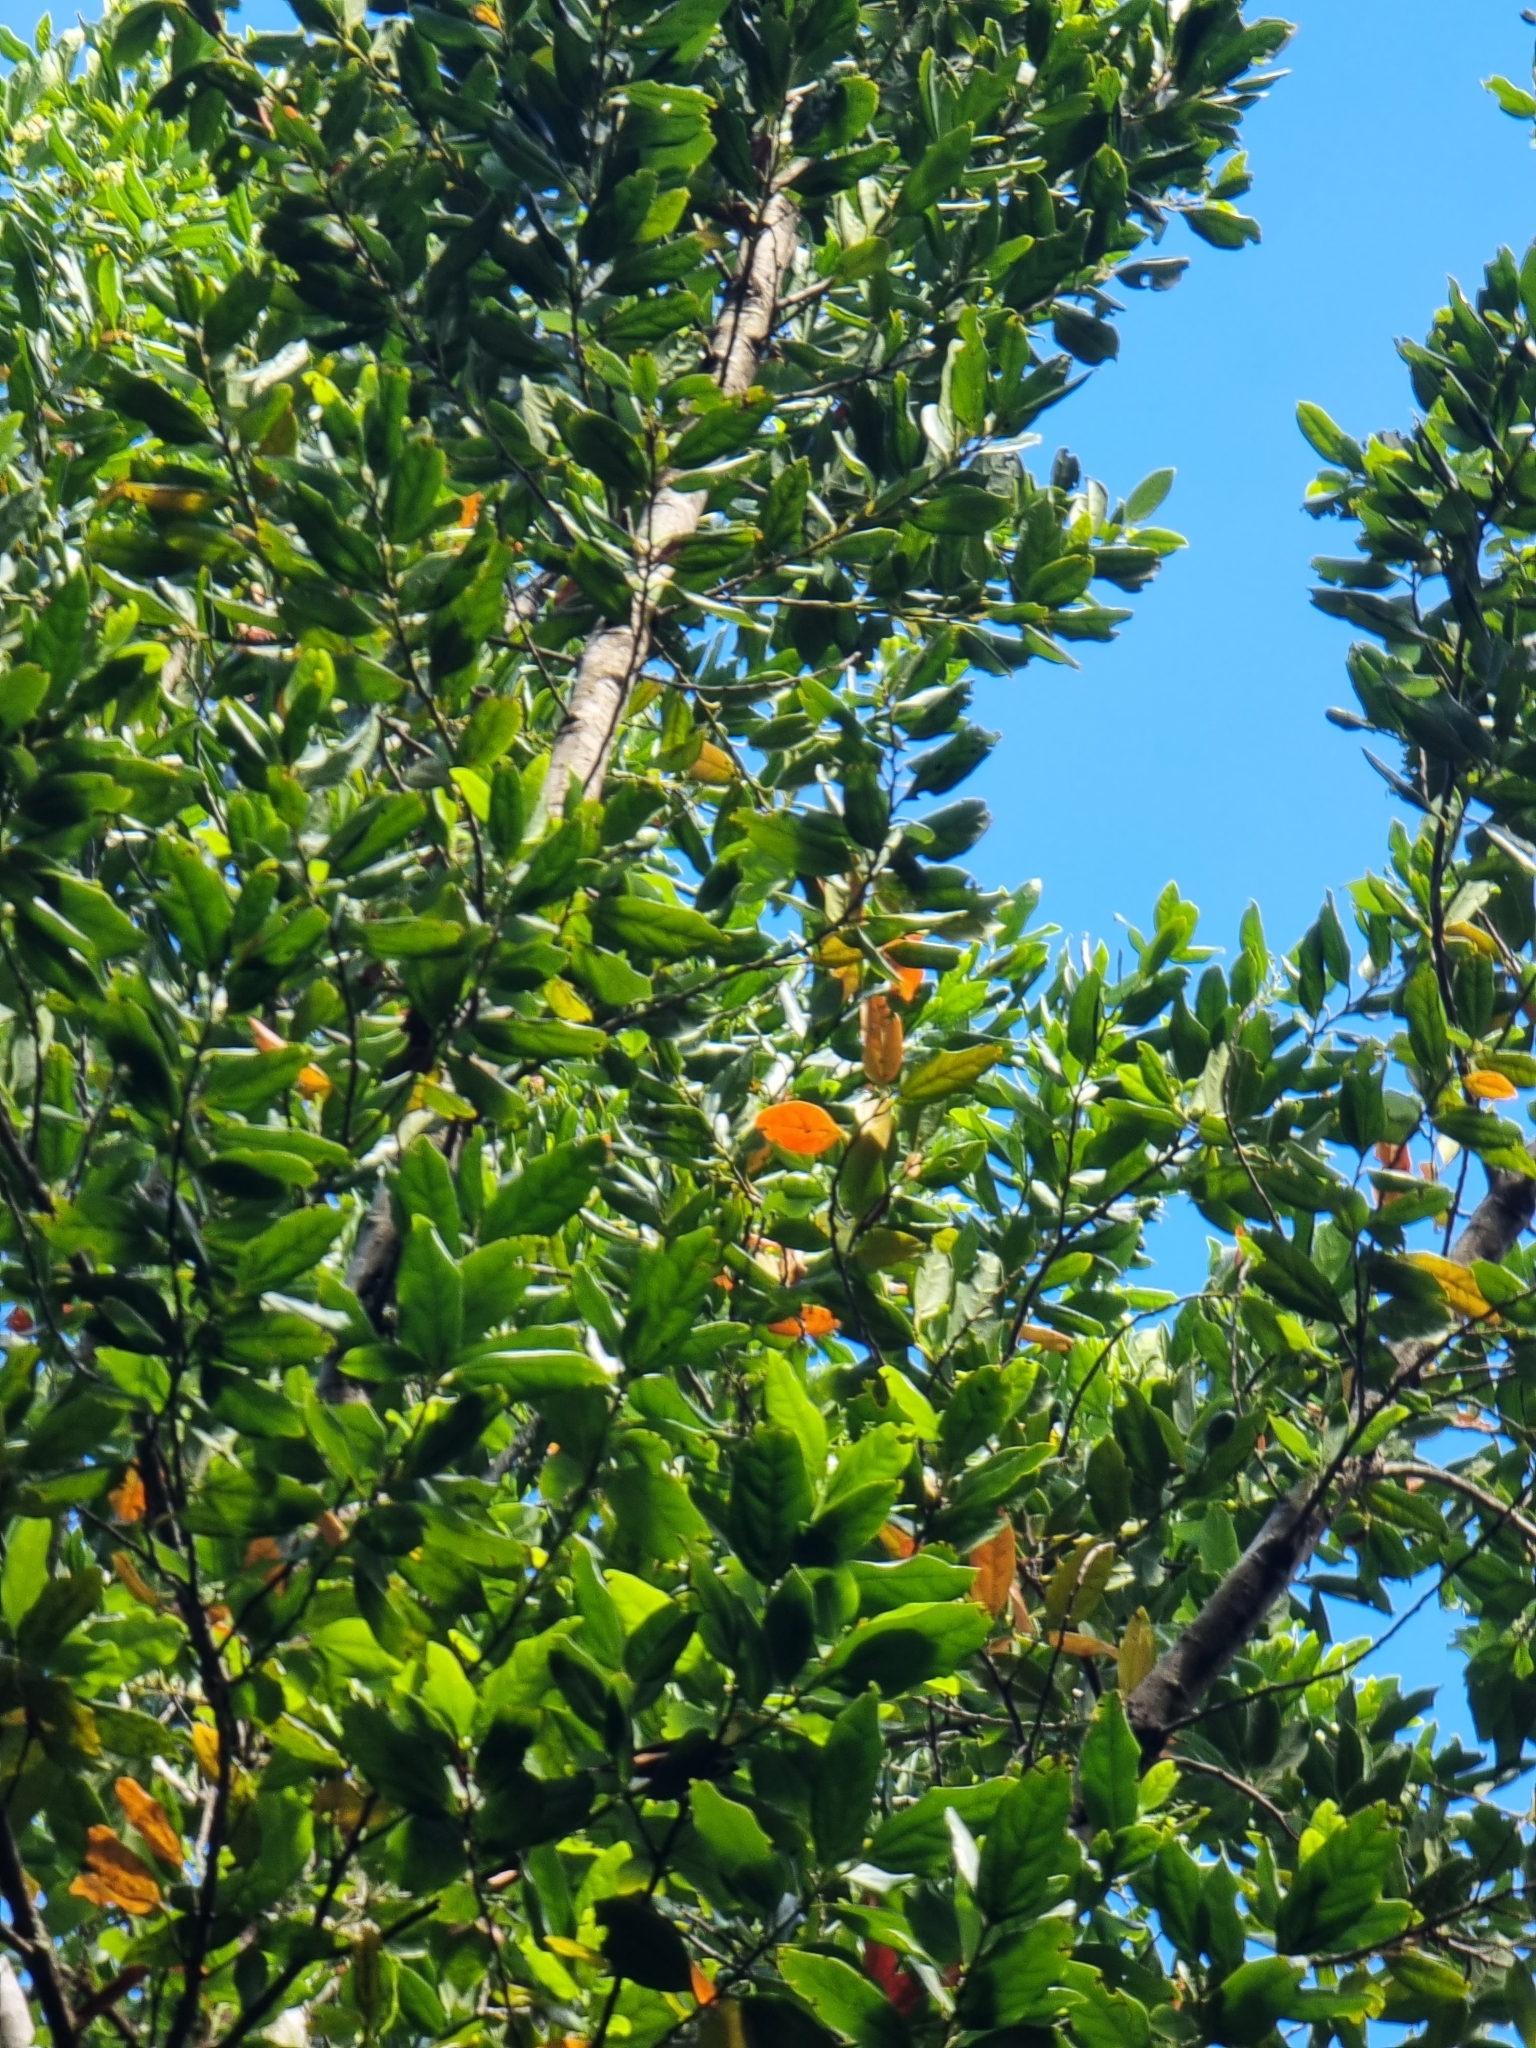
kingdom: Plantae
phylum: Tracheophyta
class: Magnoliopsida
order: Laurales
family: Lauraceae
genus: Mespilodaphne
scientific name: Mespilodaphne foetens
